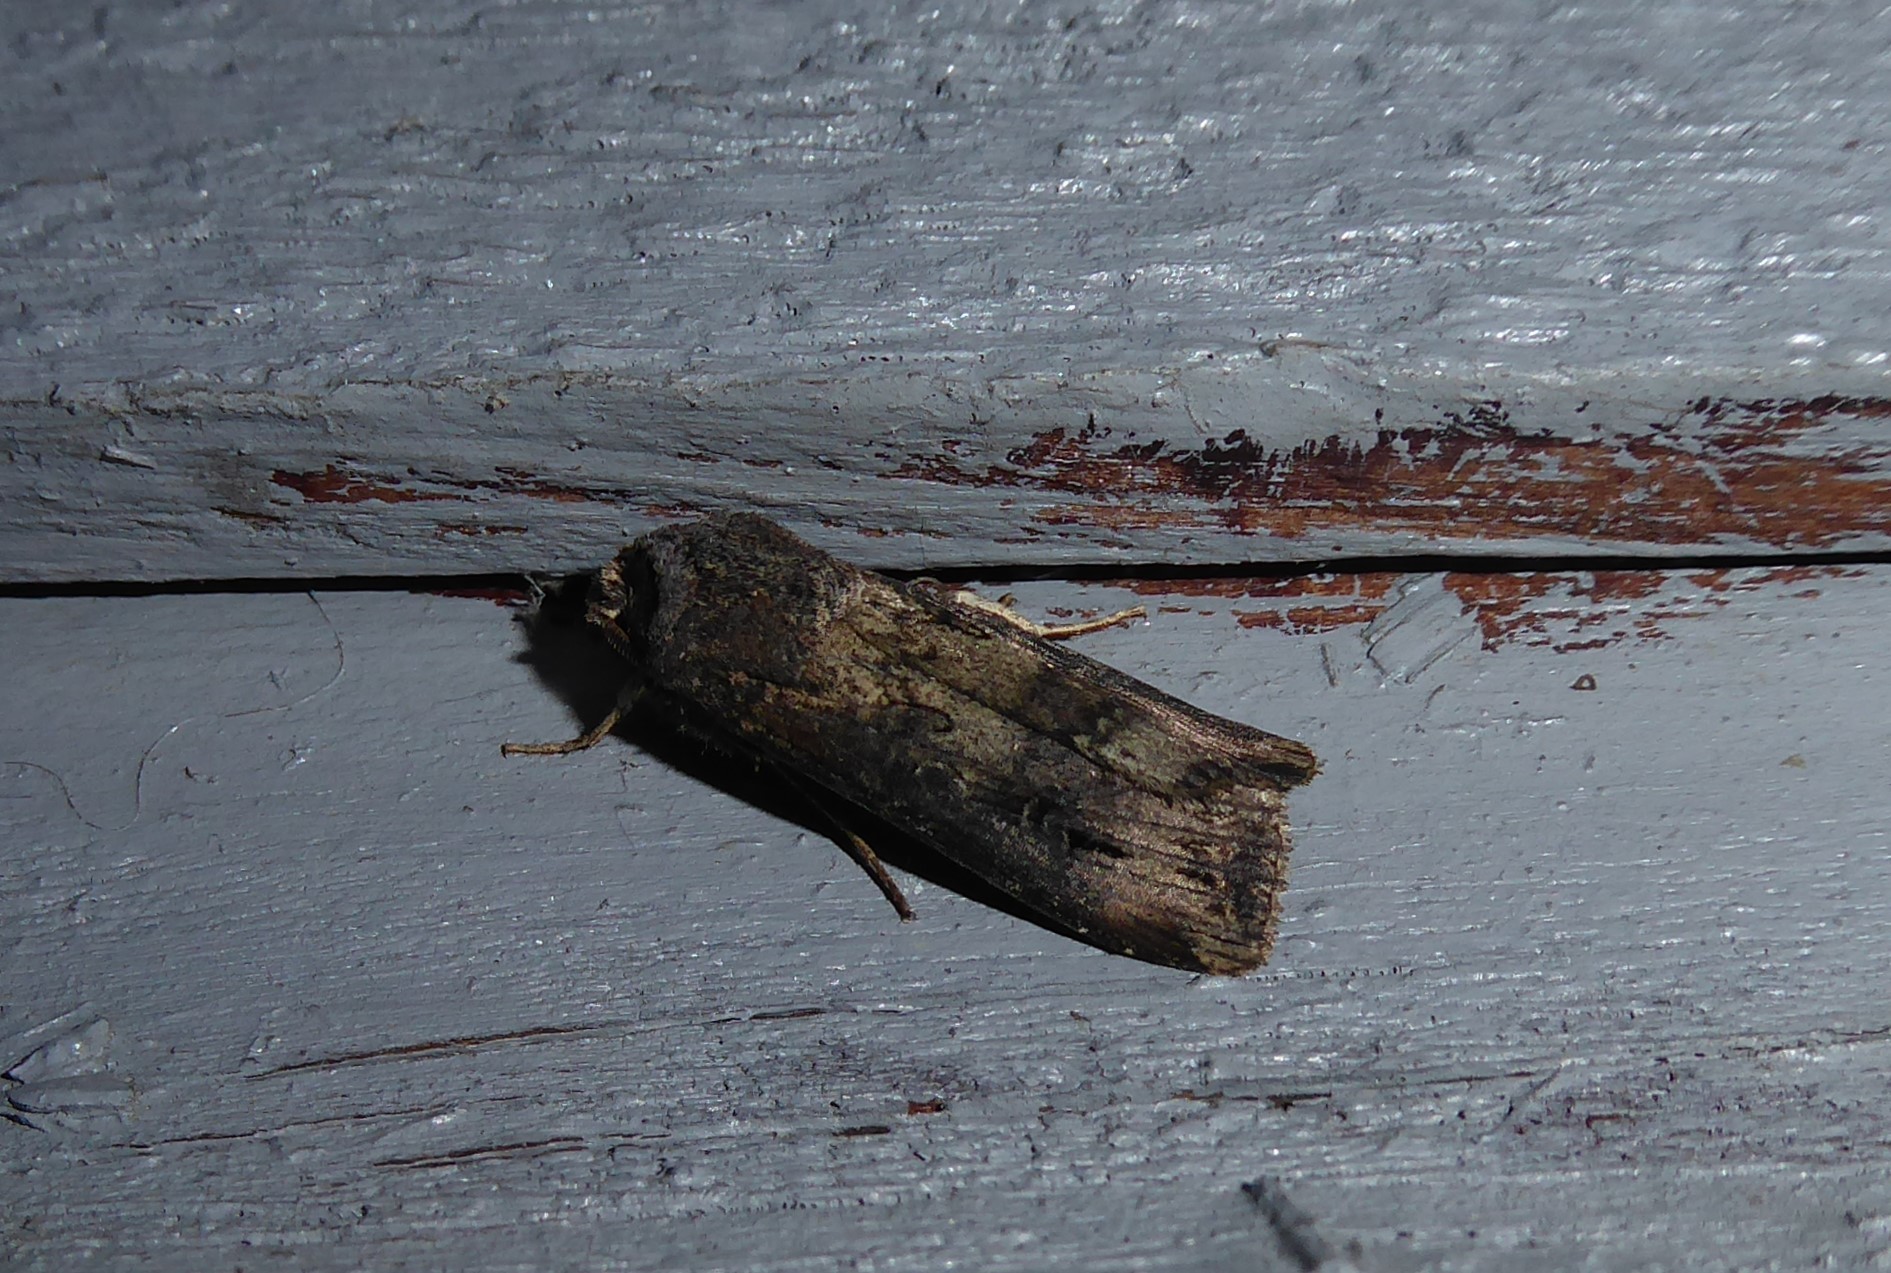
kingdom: Animalia
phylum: Arthropoda
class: Insecta
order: Lepidoptera
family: Noctuidae
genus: Agrotis
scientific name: Agrotis ipsilon
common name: Dark sword-grass
